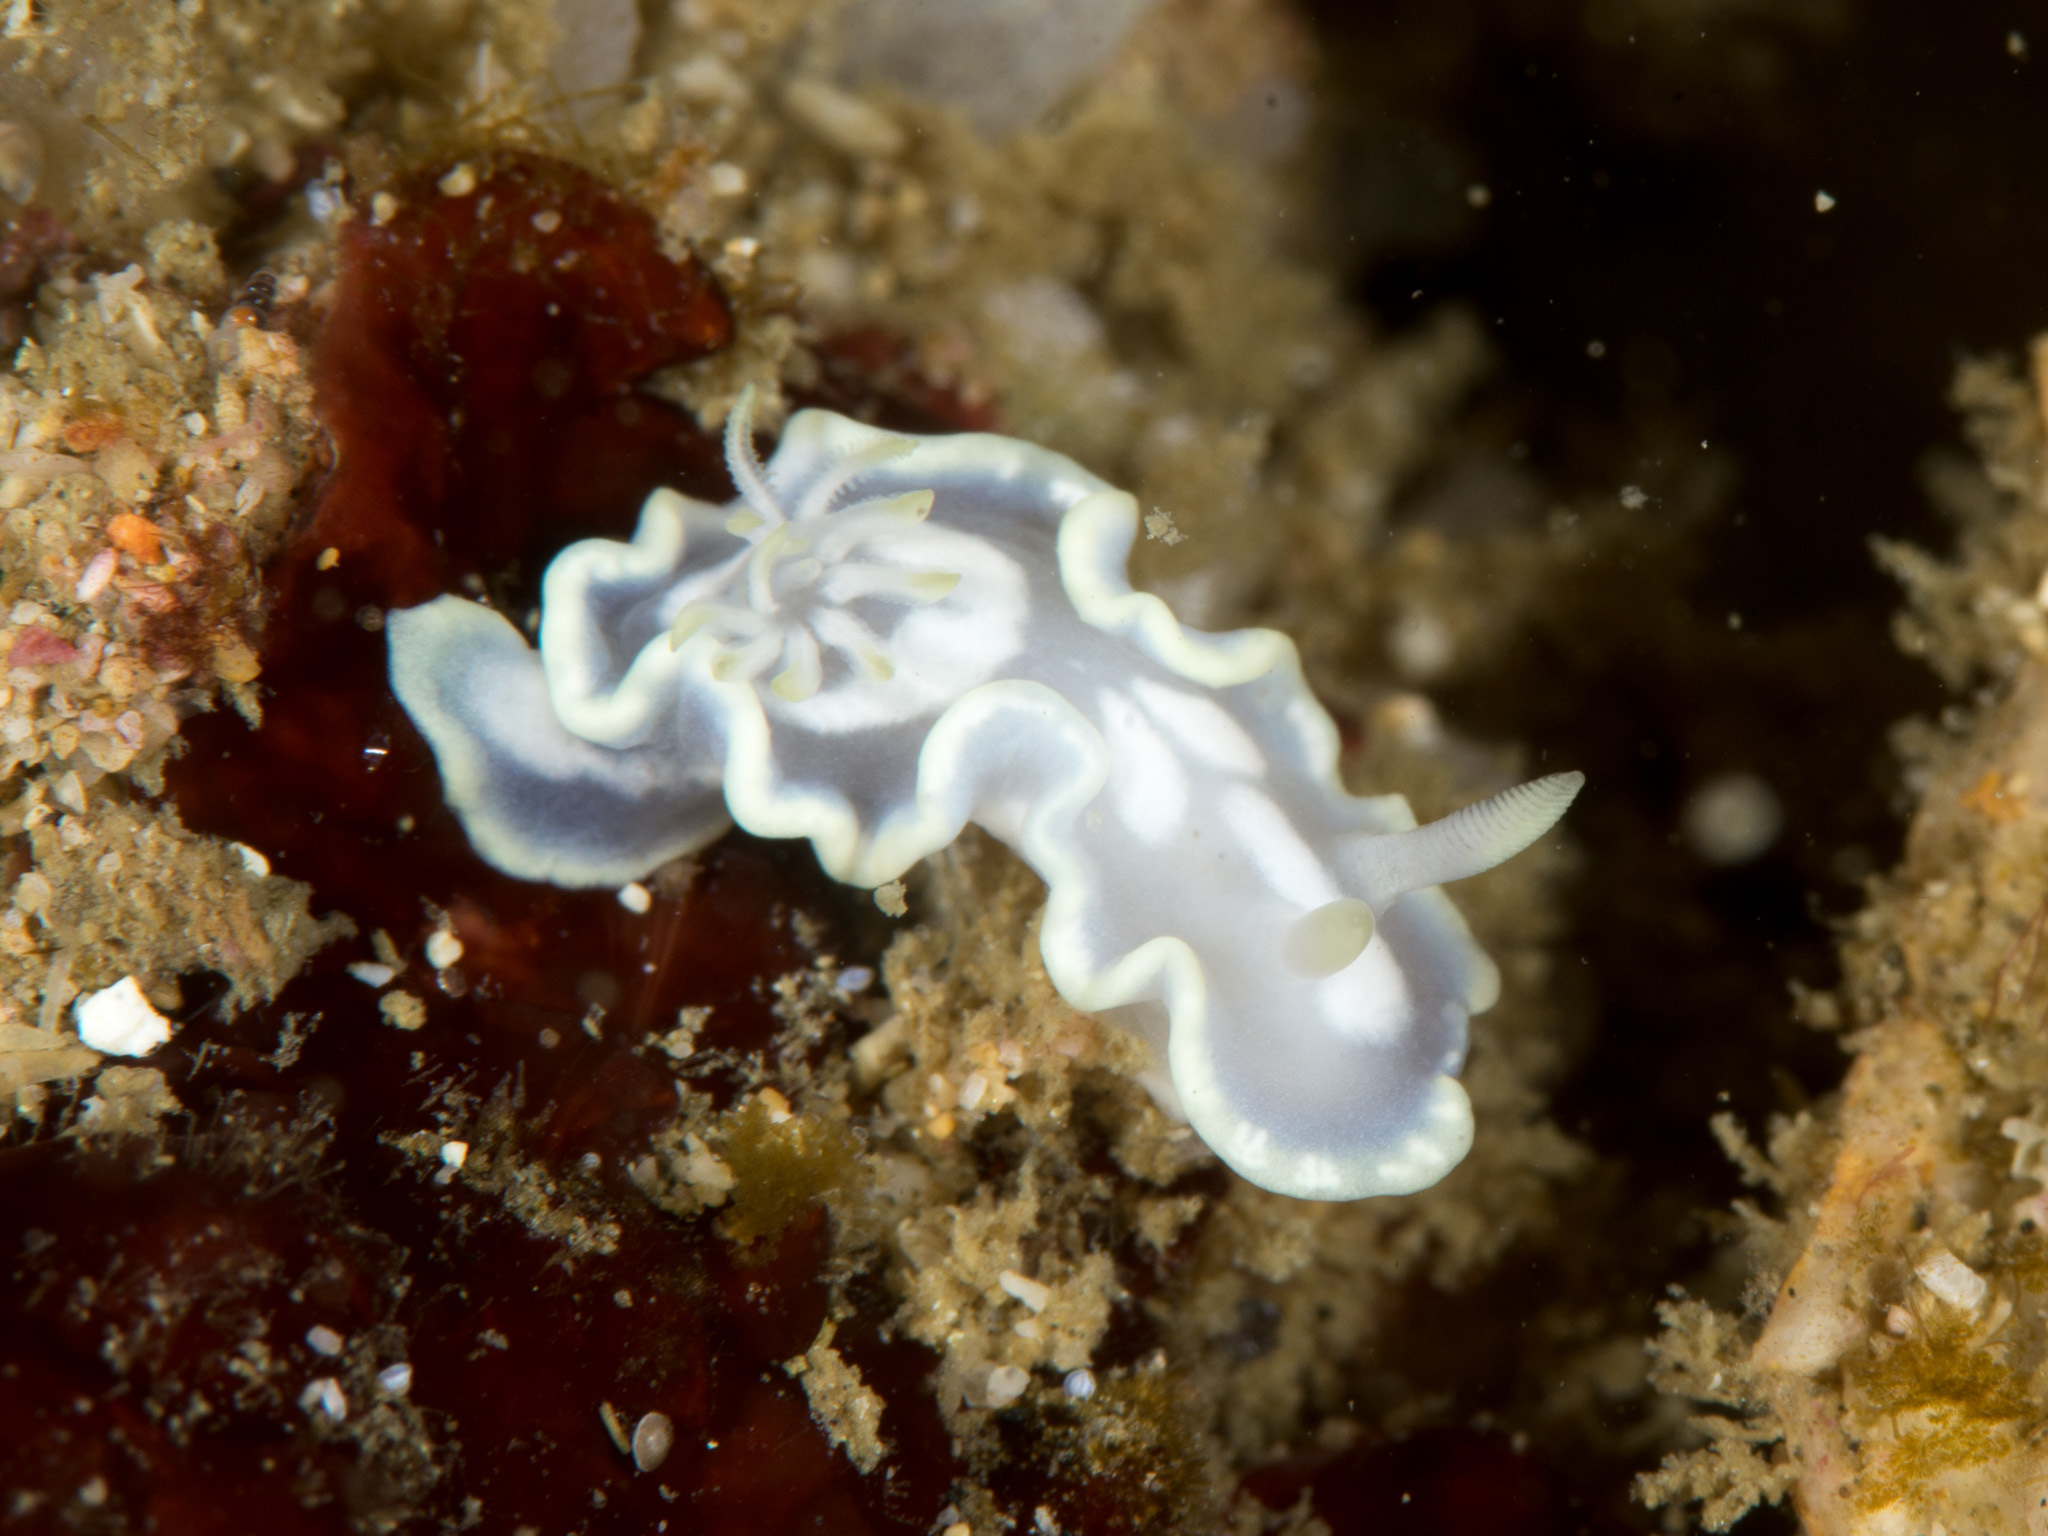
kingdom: Animalia
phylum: Mollusca
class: Gastropoda
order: Nudibranchia
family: Chromodorididae
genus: Glossodoris
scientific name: Glossodoris pallida
